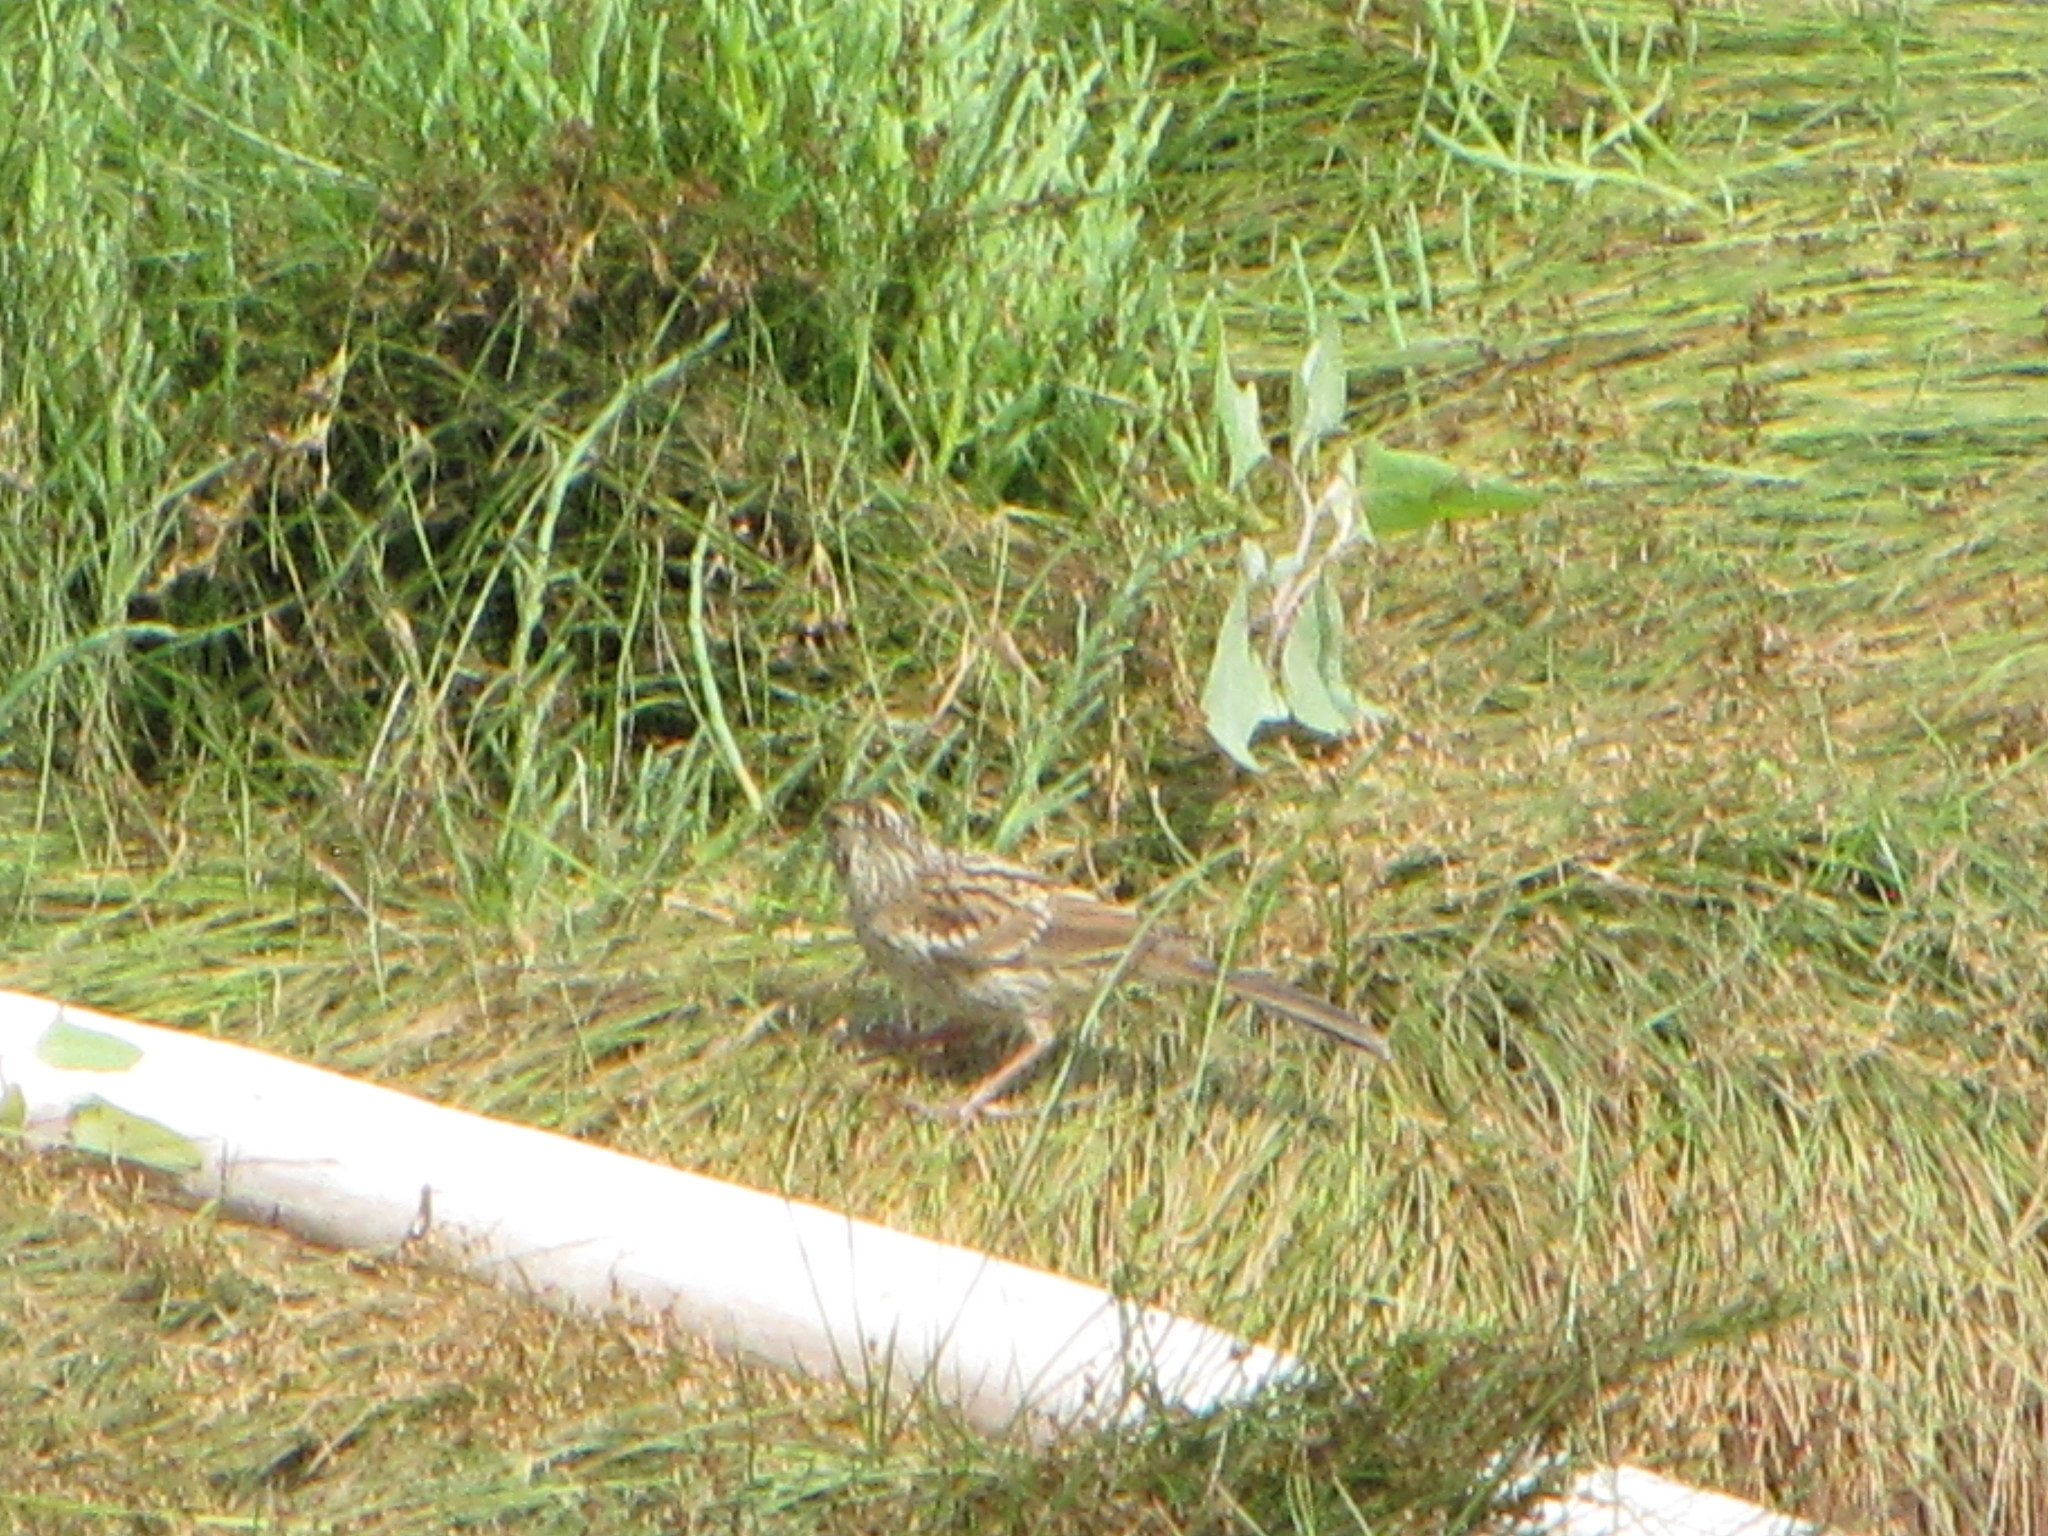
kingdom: Animalia
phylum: Chordata
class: Aves
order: Passeriformes
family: Passerellidae
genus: Zonotrichia
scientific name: Zonotrichia leucophrys
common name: White-crowned sparrow
